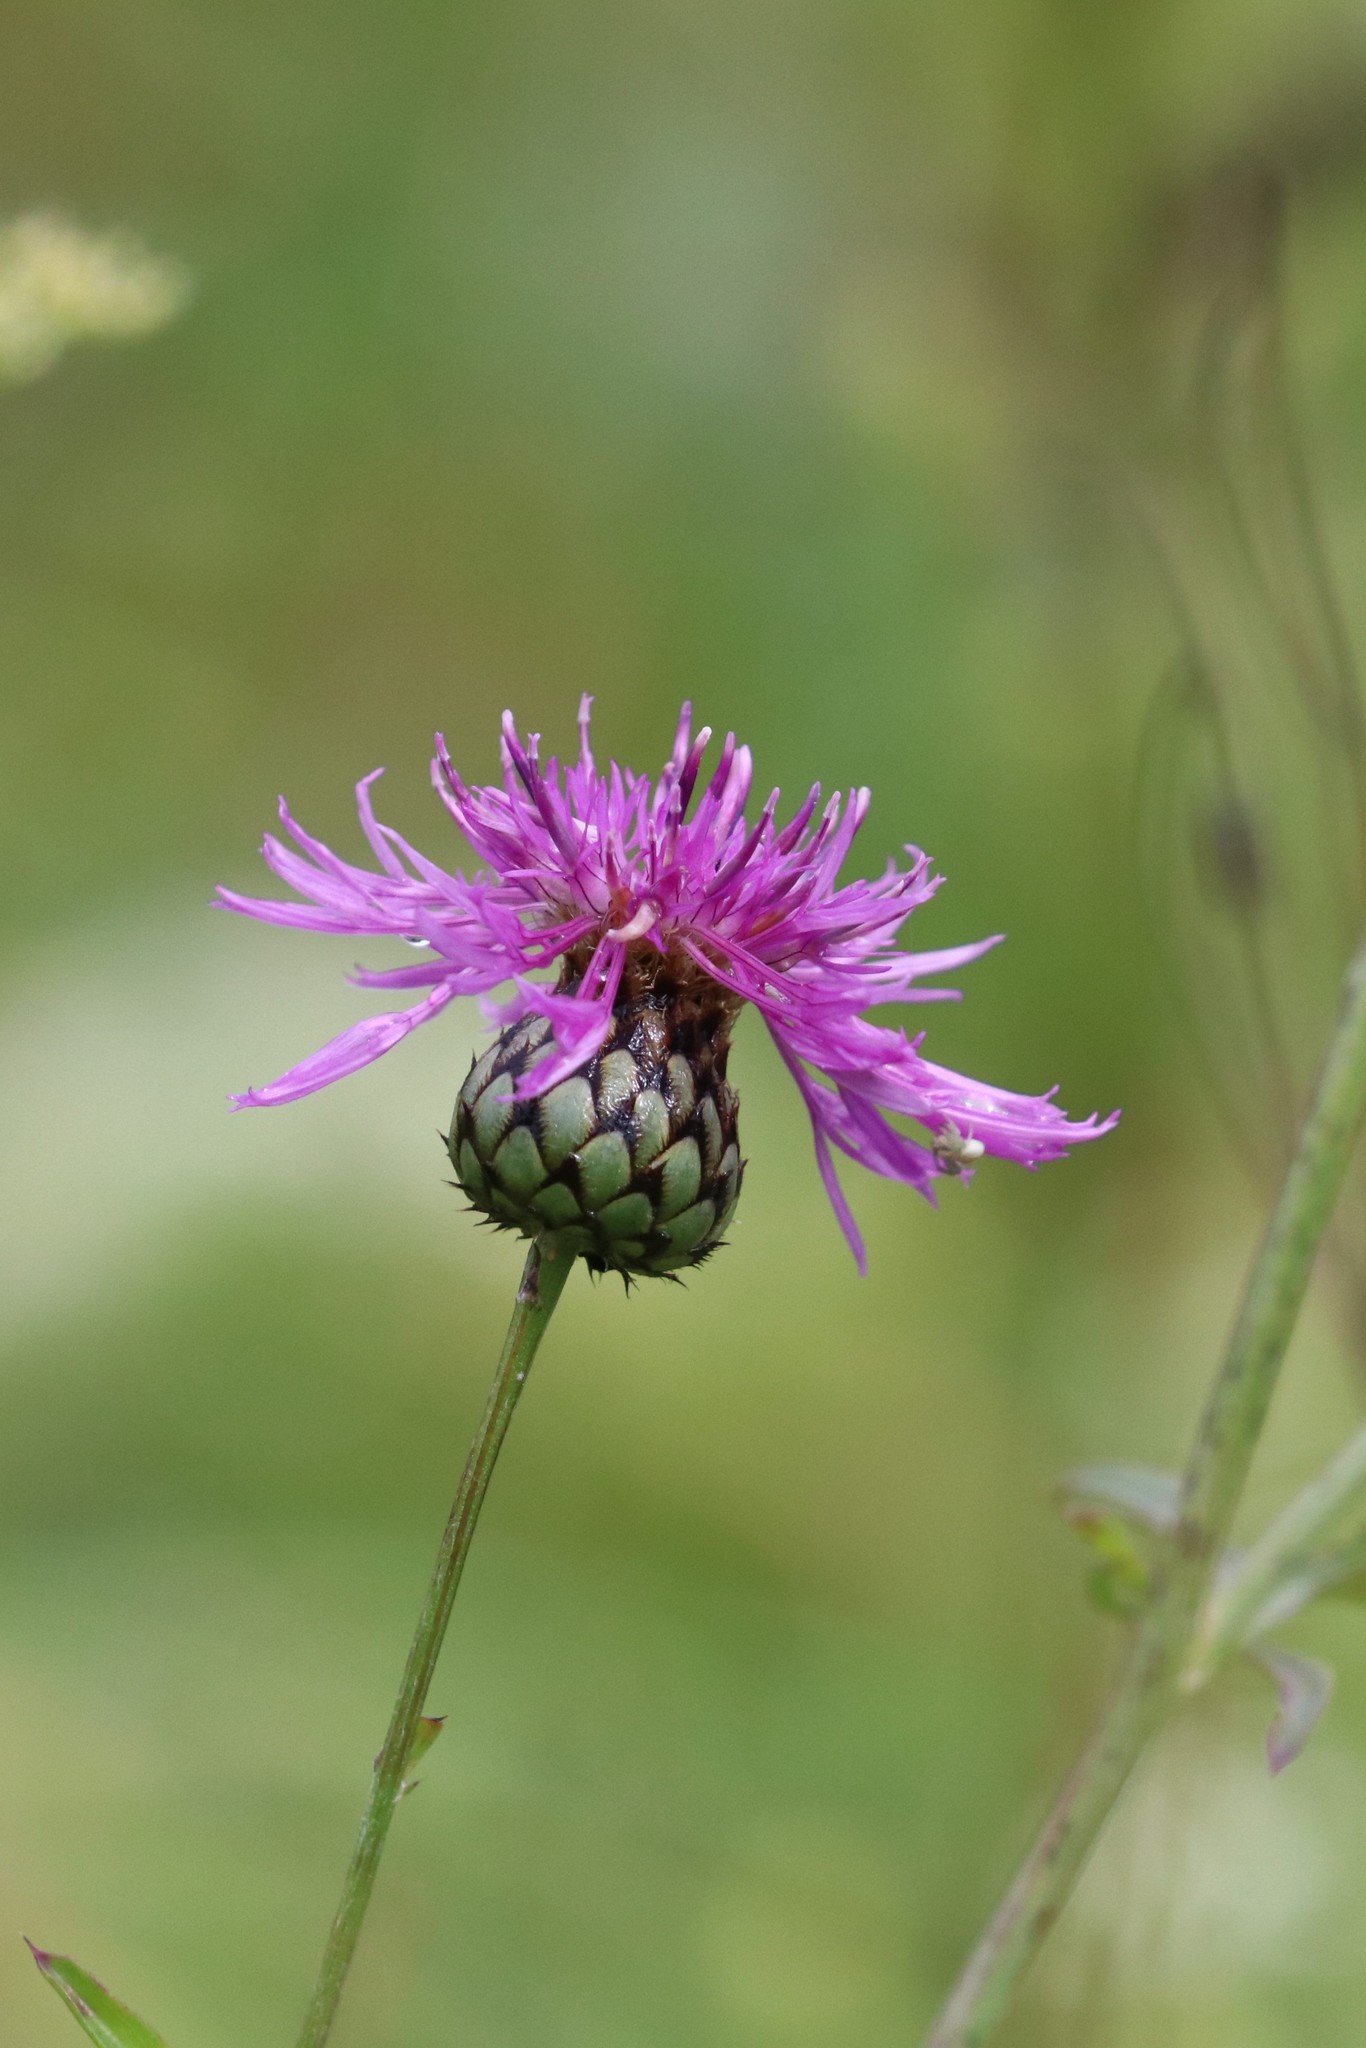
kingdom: Plantae
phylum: Tracheophyta
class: Magnoliopsida
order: Asterales
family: Asteraceae
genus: Centaurea
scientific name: Centaurea scabiosa
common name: Greater knapweed
